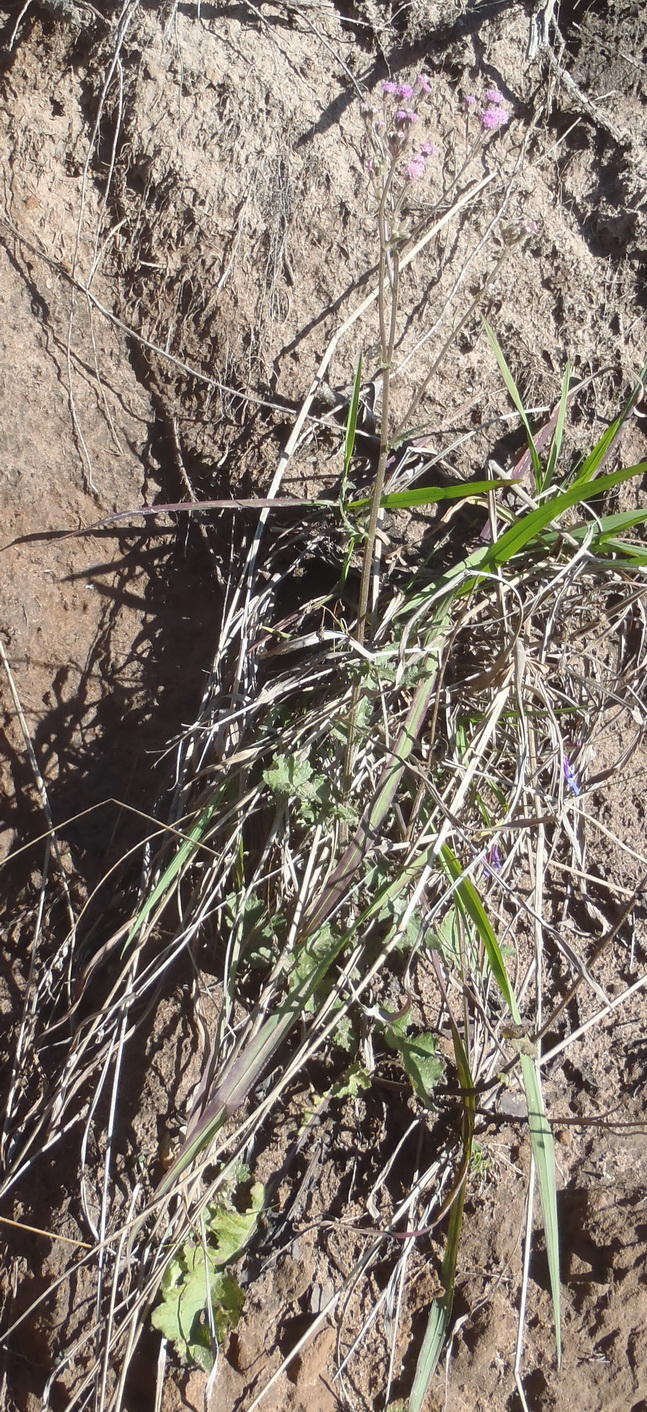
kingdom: Plantae
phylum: Tracheophyta
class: Magnoliopsida
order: Asterales
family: Asteraceae
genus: Senecio
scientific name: Senecio purpureus
